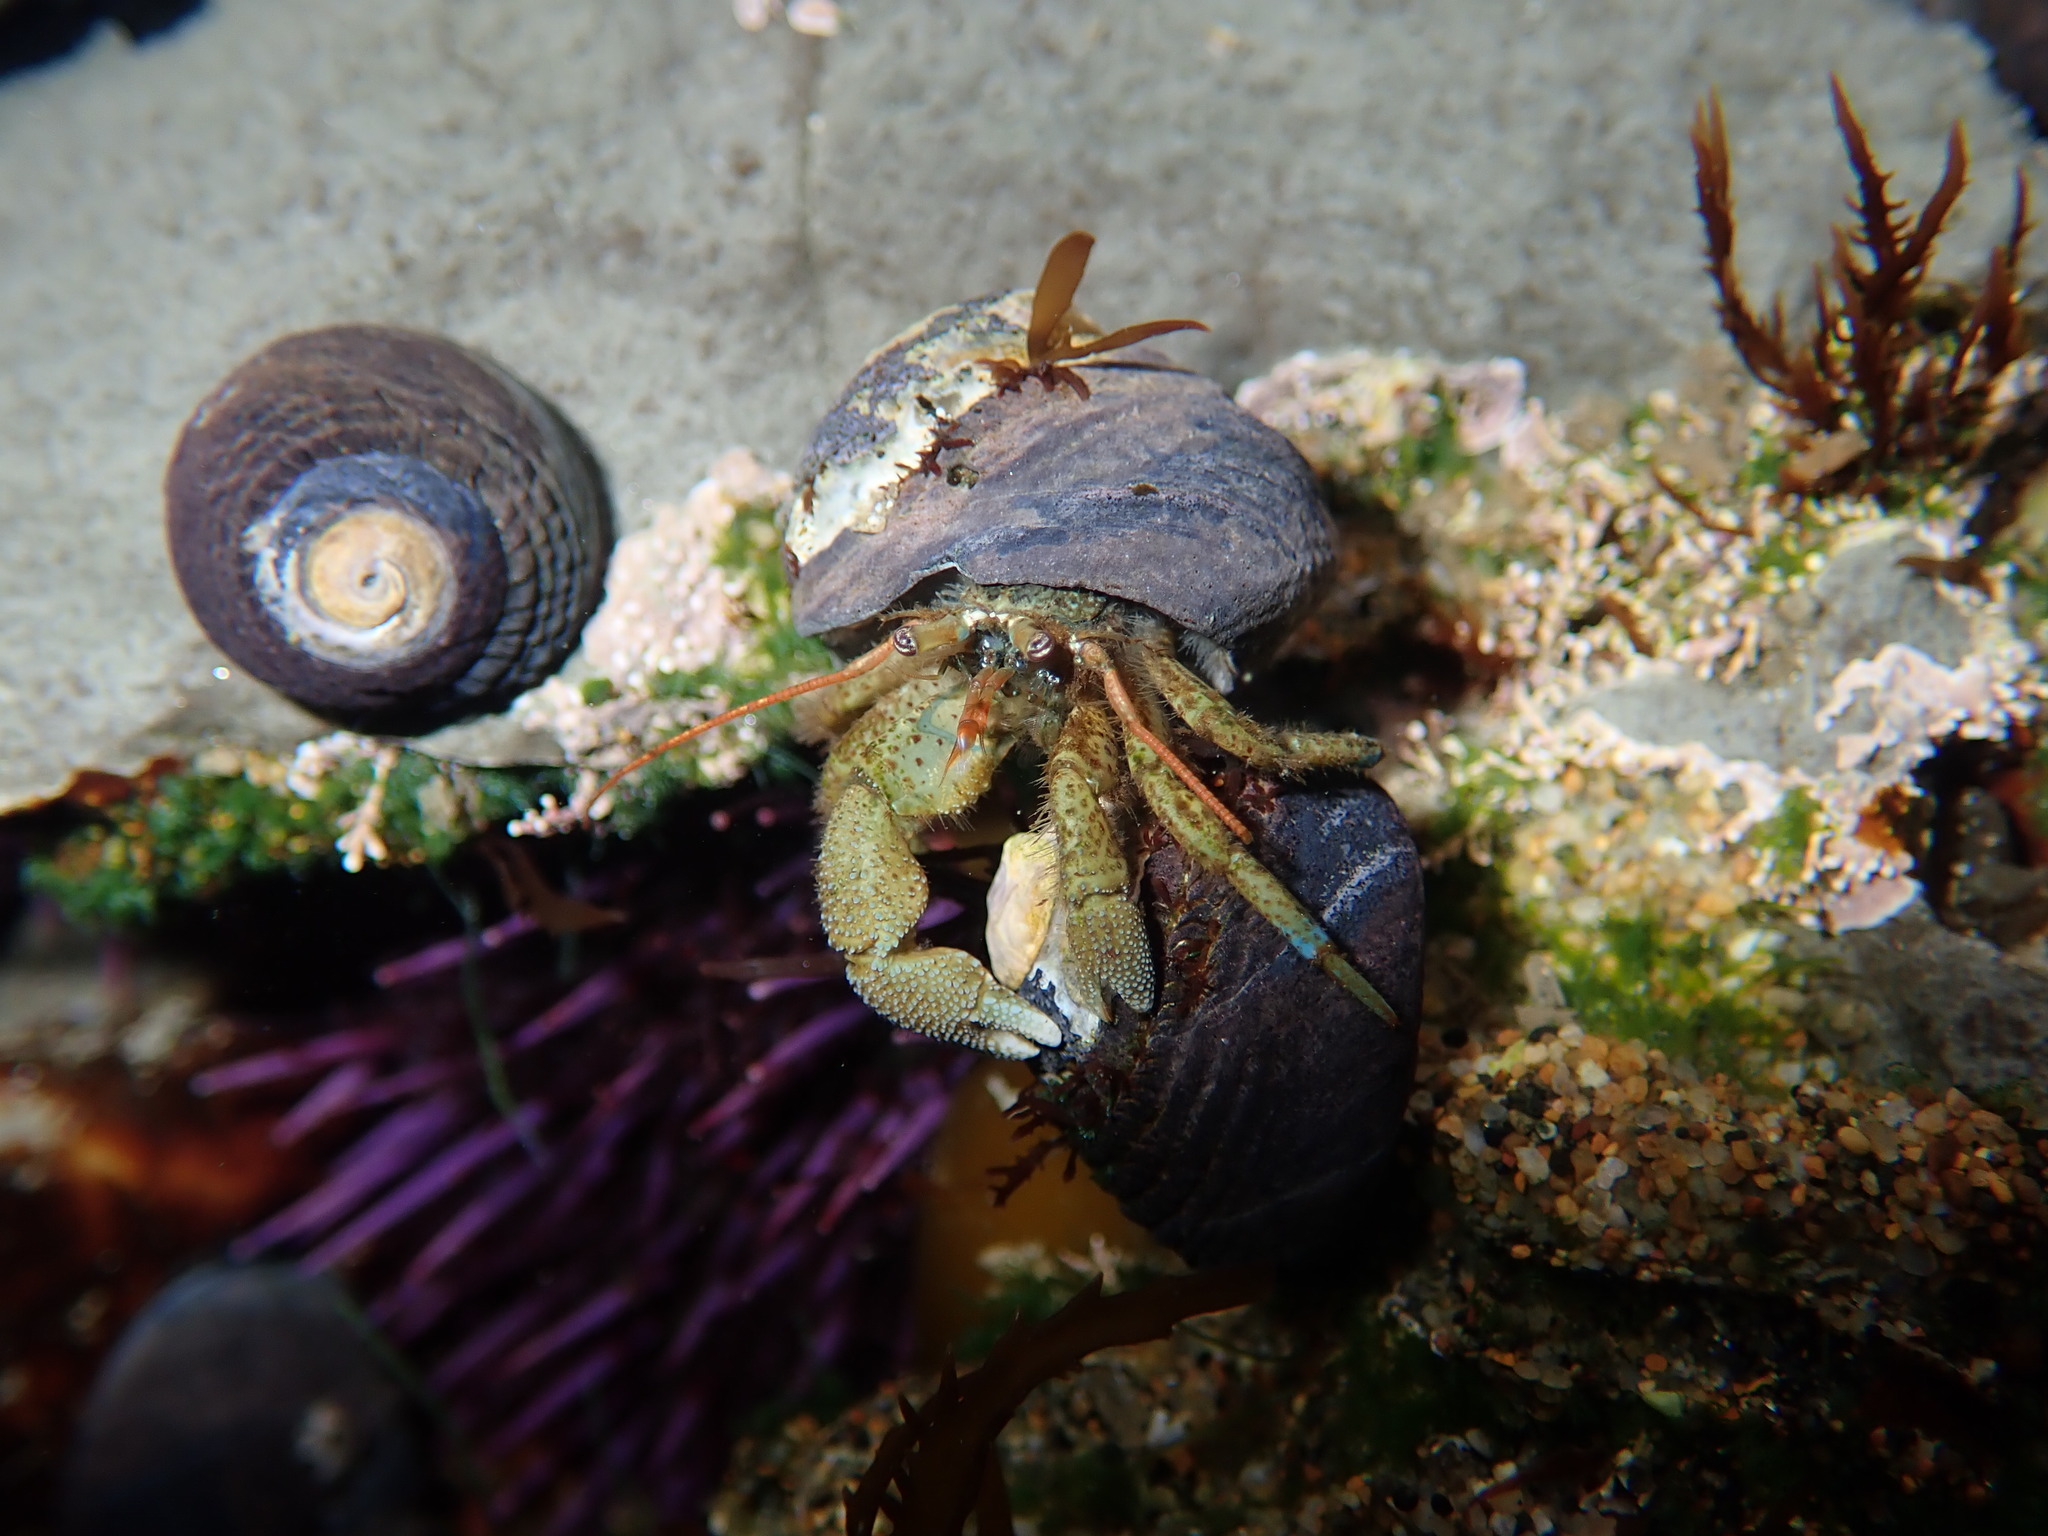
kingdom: Animalia
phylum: Arthropoda
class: Malacostraca
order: Decapoda
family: Paguridae
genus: Pagurus
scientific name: Pagurus samuelis
